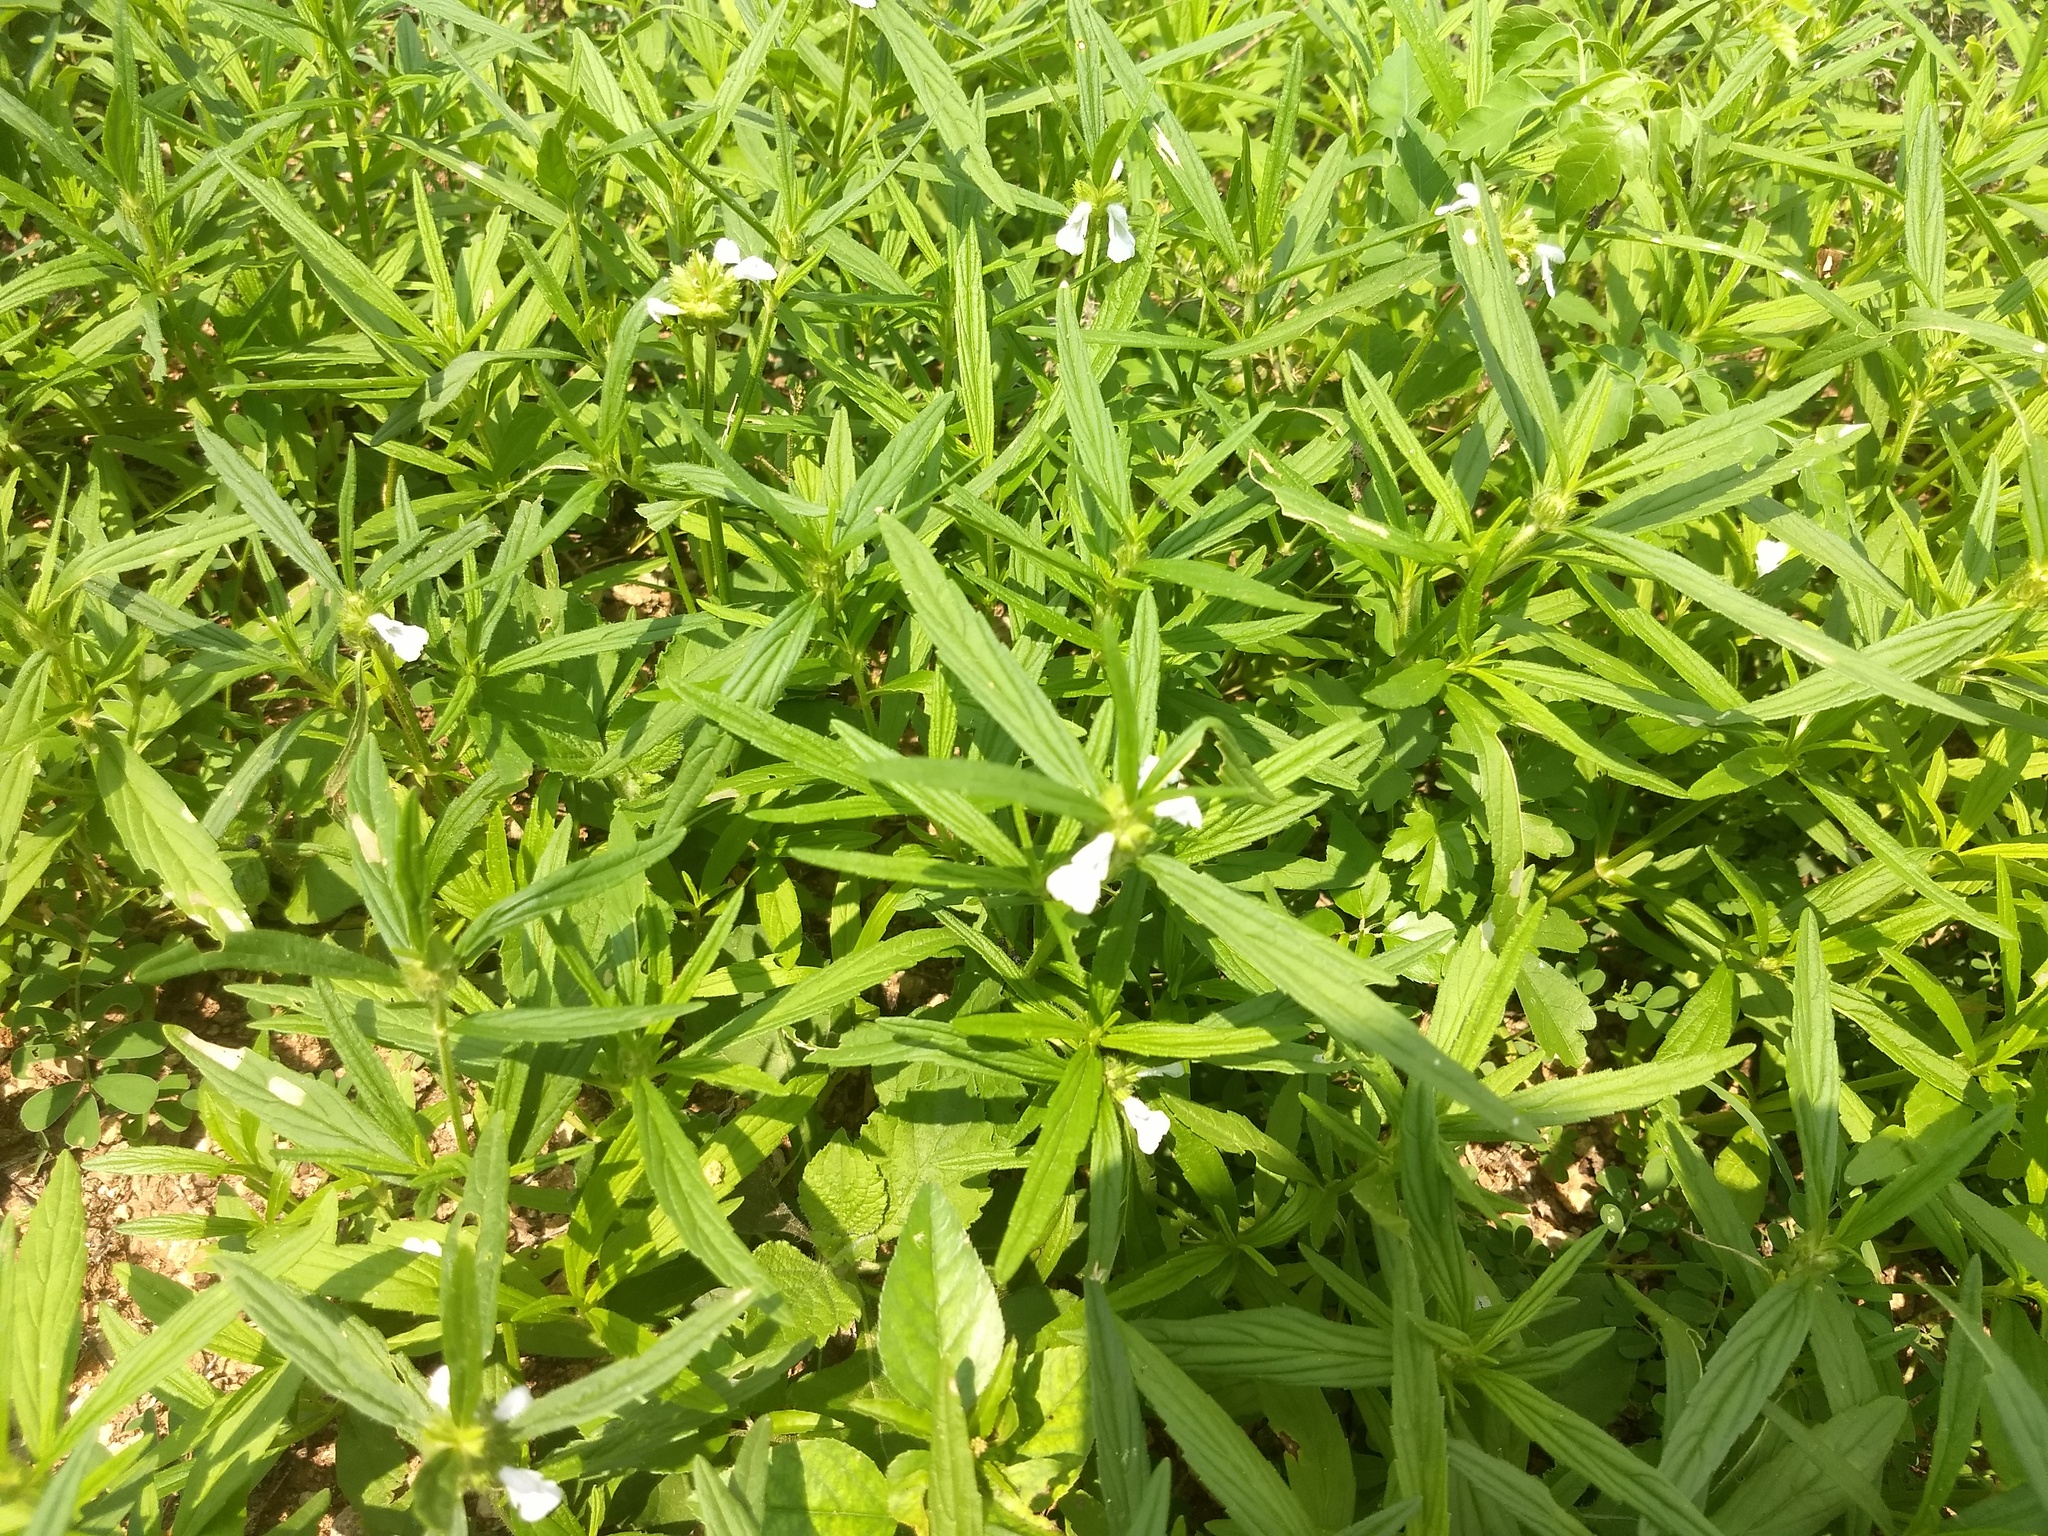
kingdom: Plantae
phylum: Tracheophyta
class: Magnoliopsida
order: Lamiales
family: Lamiaceae
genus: Leucas
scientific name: Leucas aspera
